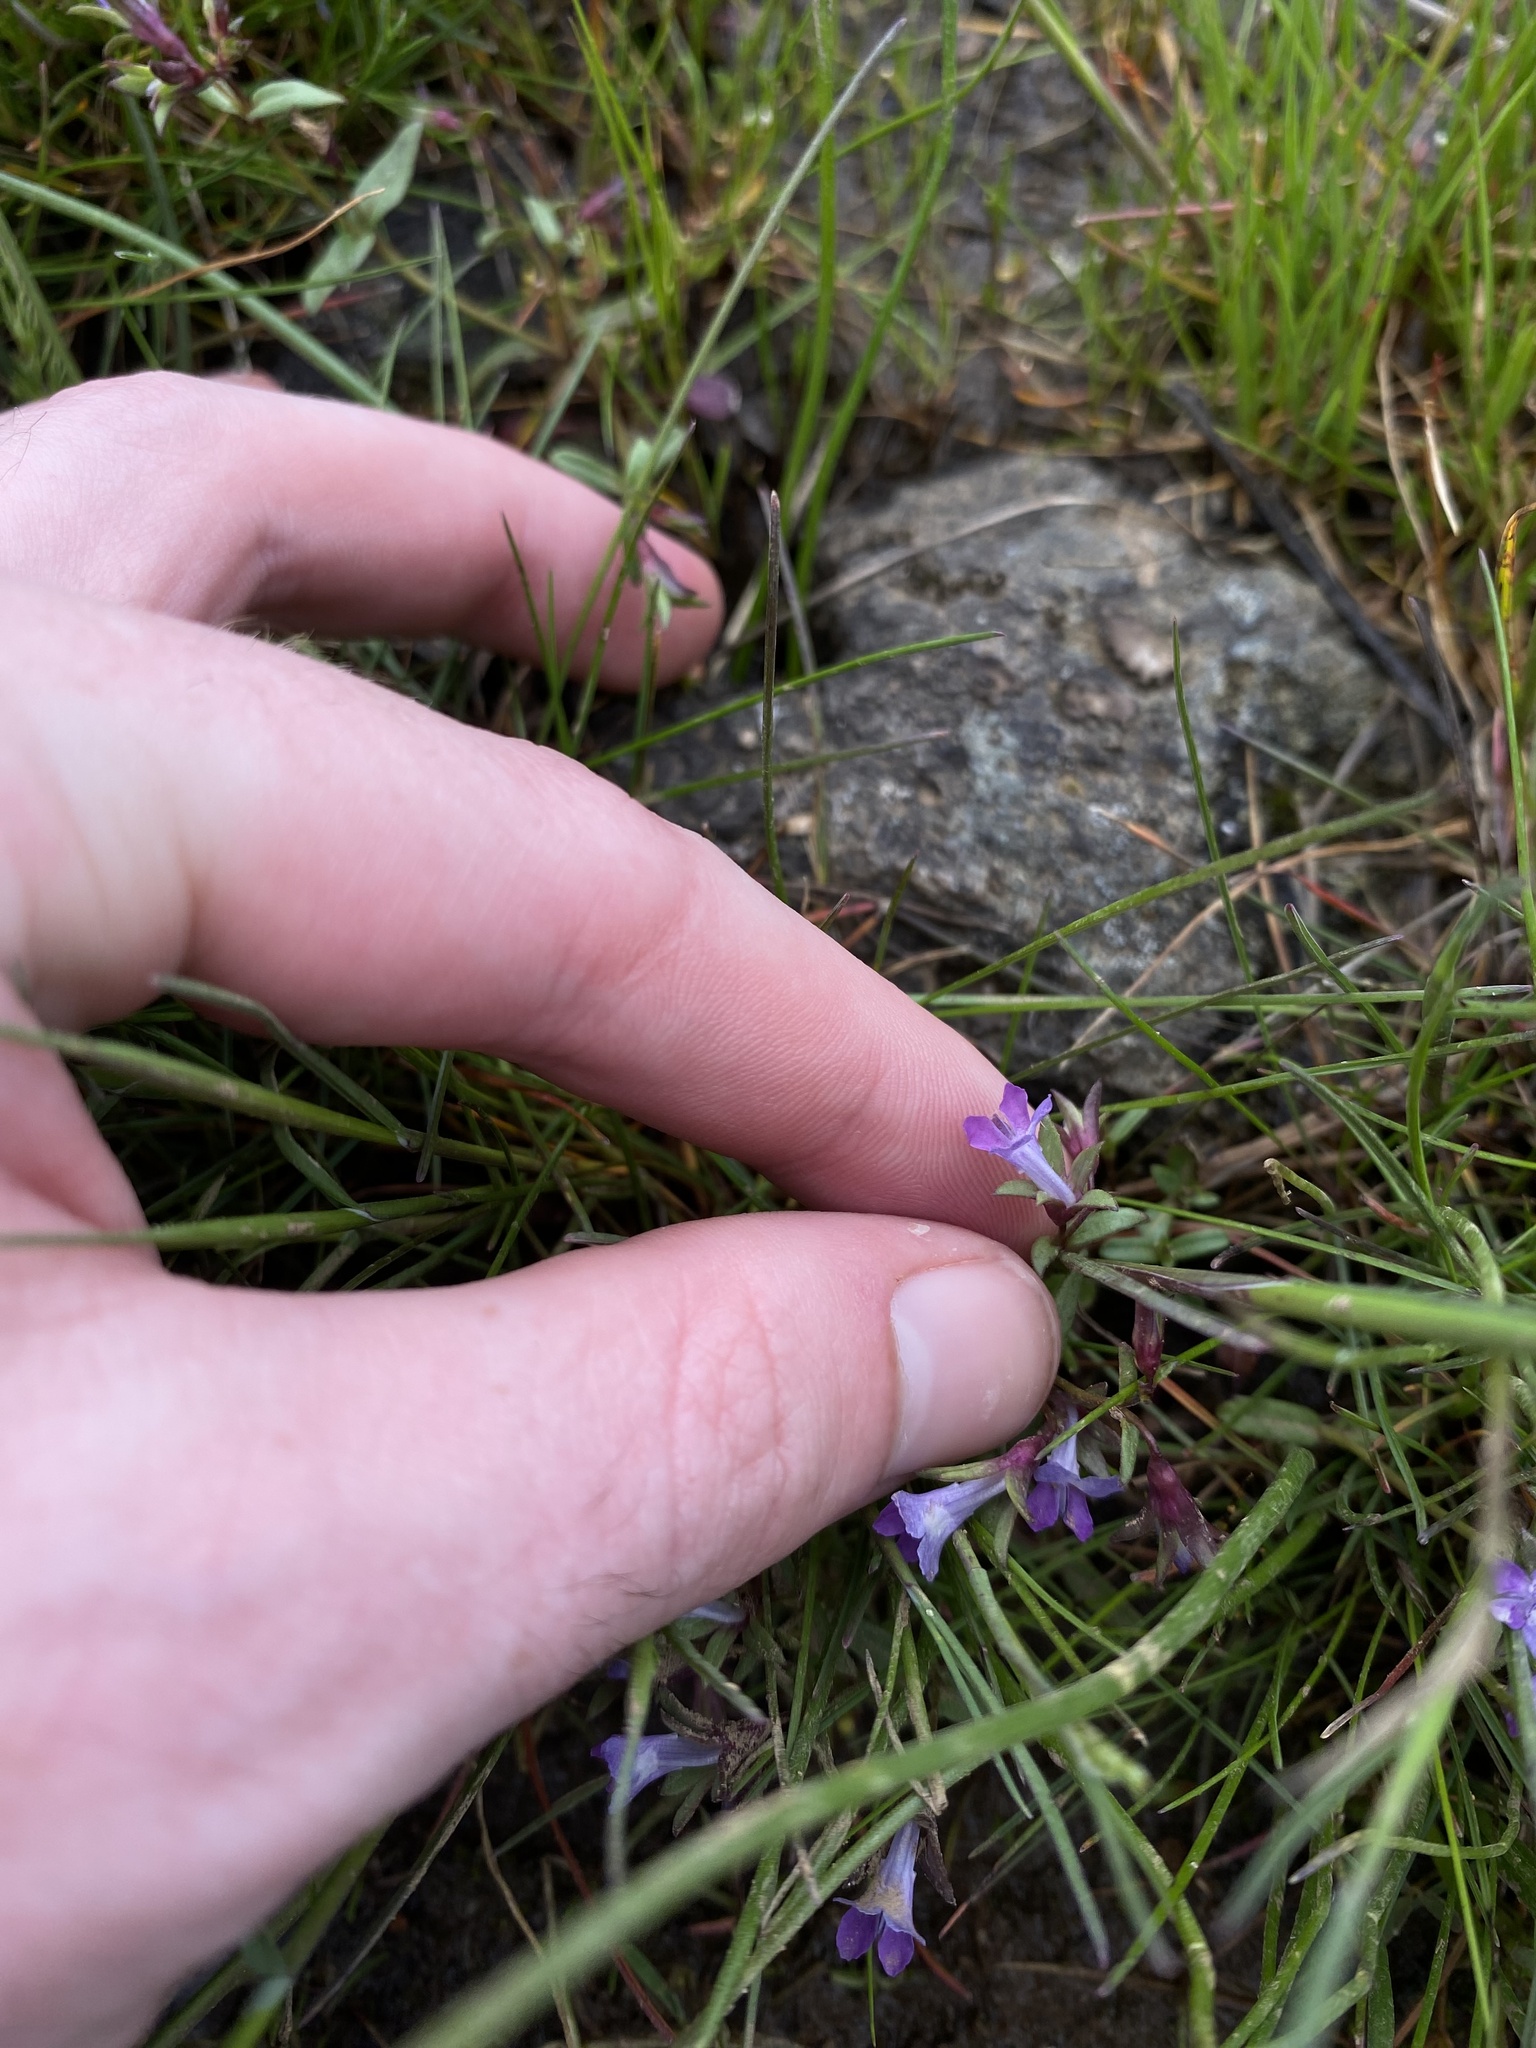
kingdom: Plantae
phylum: Tracheophyta
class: Magnoliopsida
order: Lamiales
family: Plantaginaceae
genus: Collinsia
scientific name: Collinsia sparsiflora
